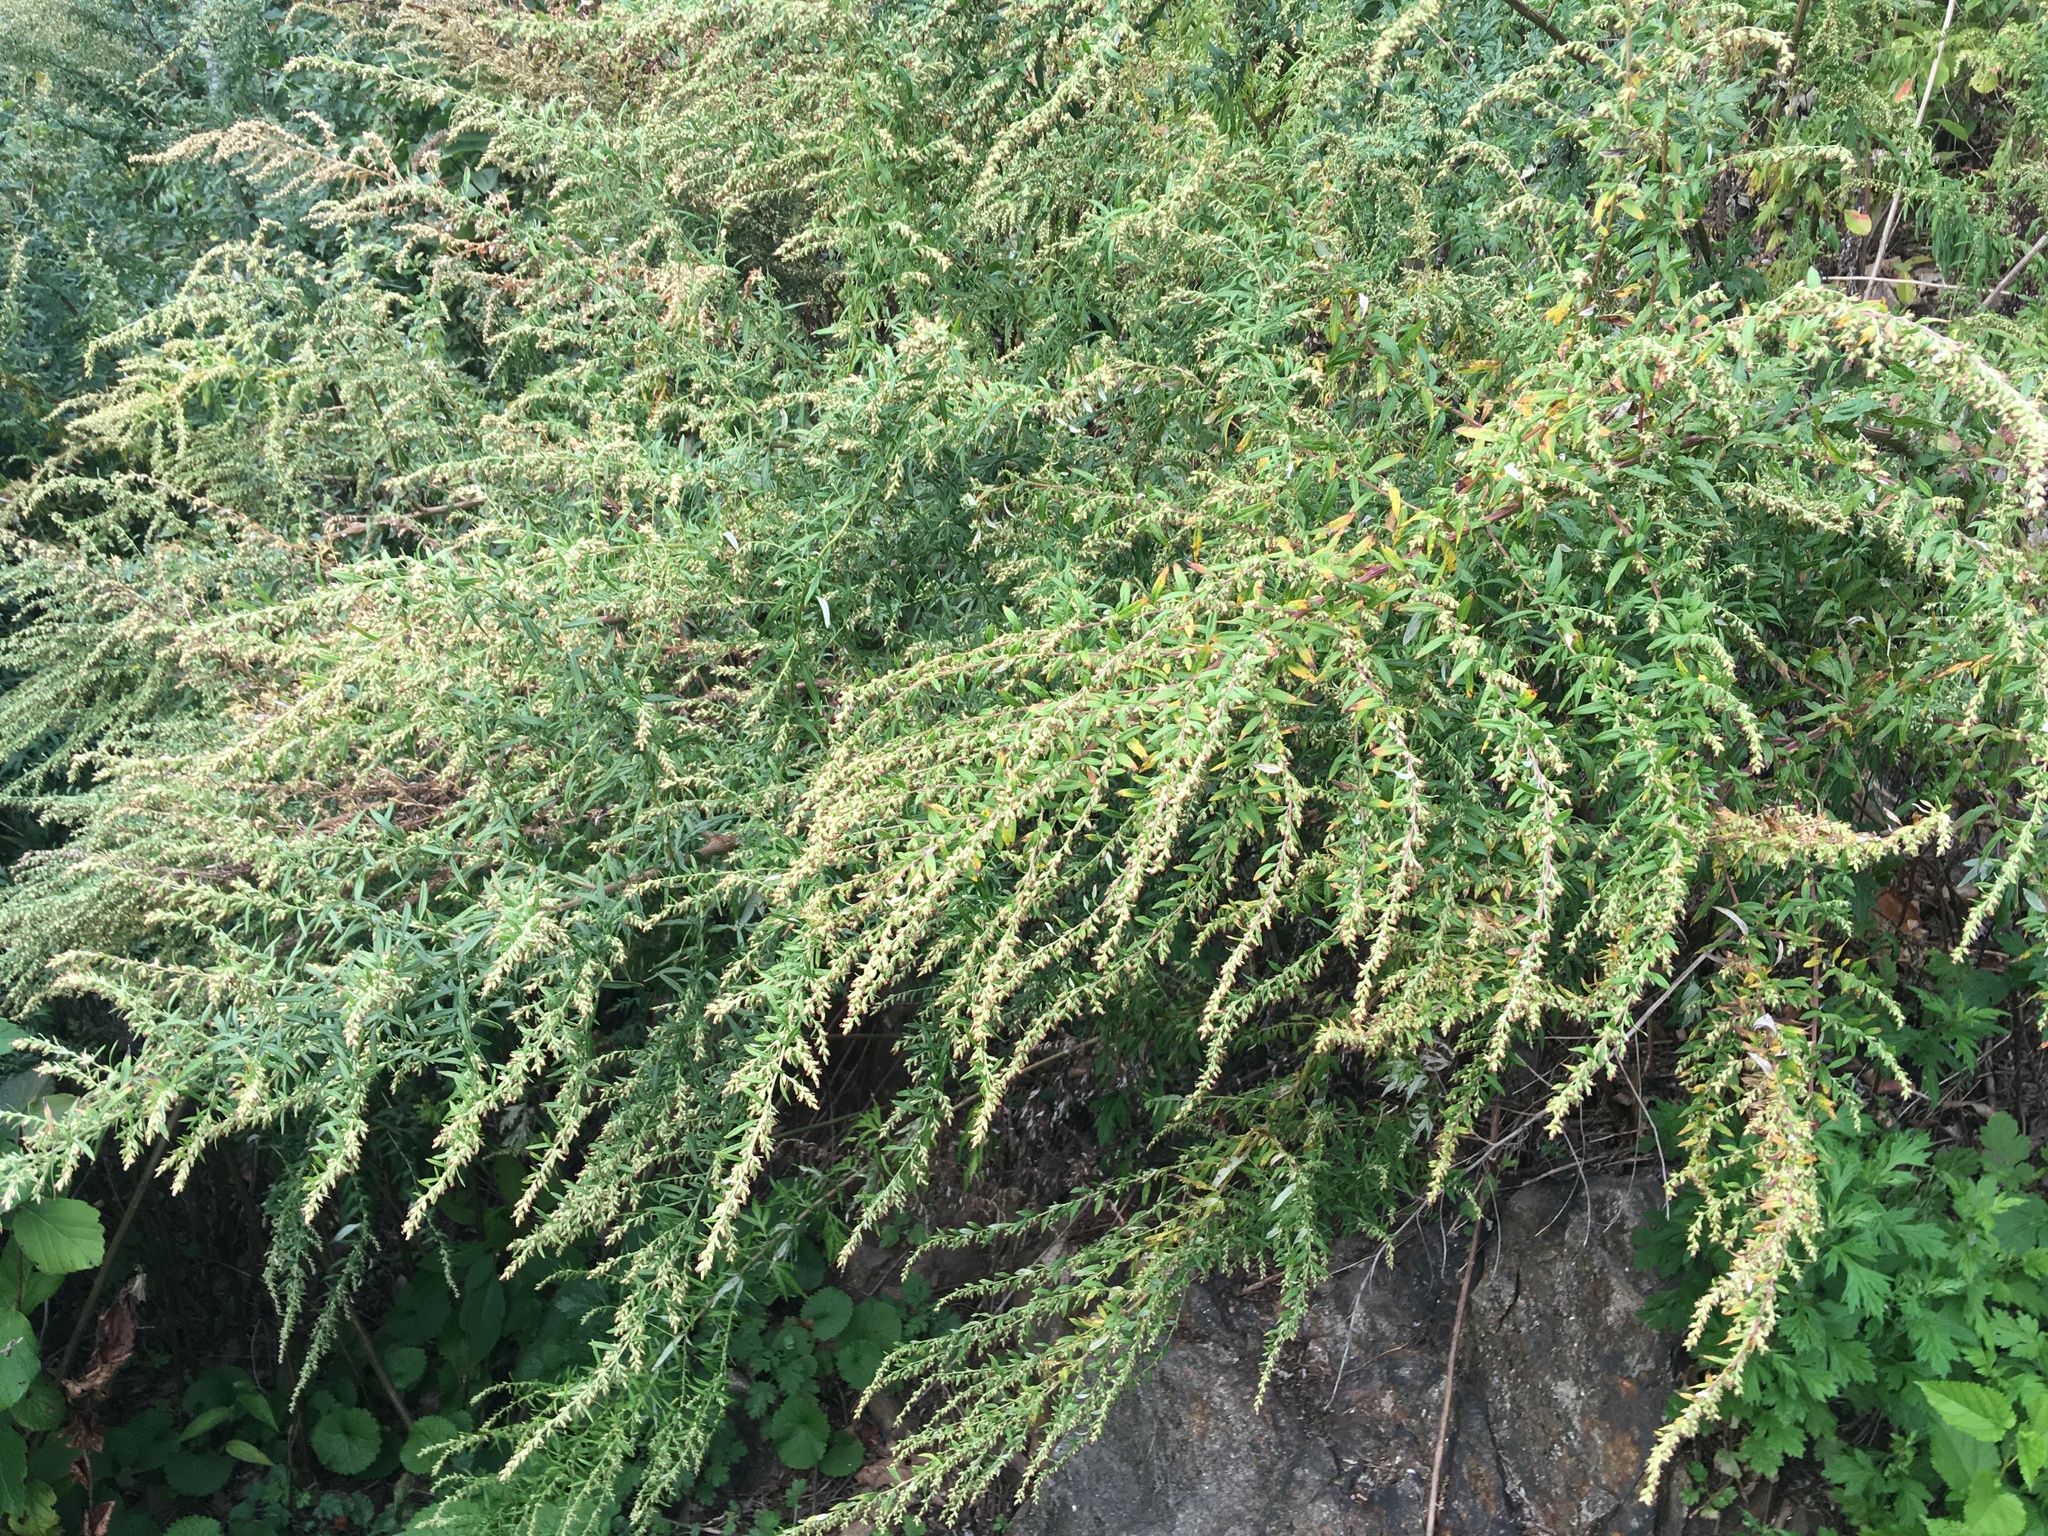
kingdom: Plantae
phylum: Tracheophyta
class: Magnoliopsida
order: Asterales
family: Asteraceae
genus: Artemisia
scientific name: Artemisia vulgaris
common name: Mugwort
